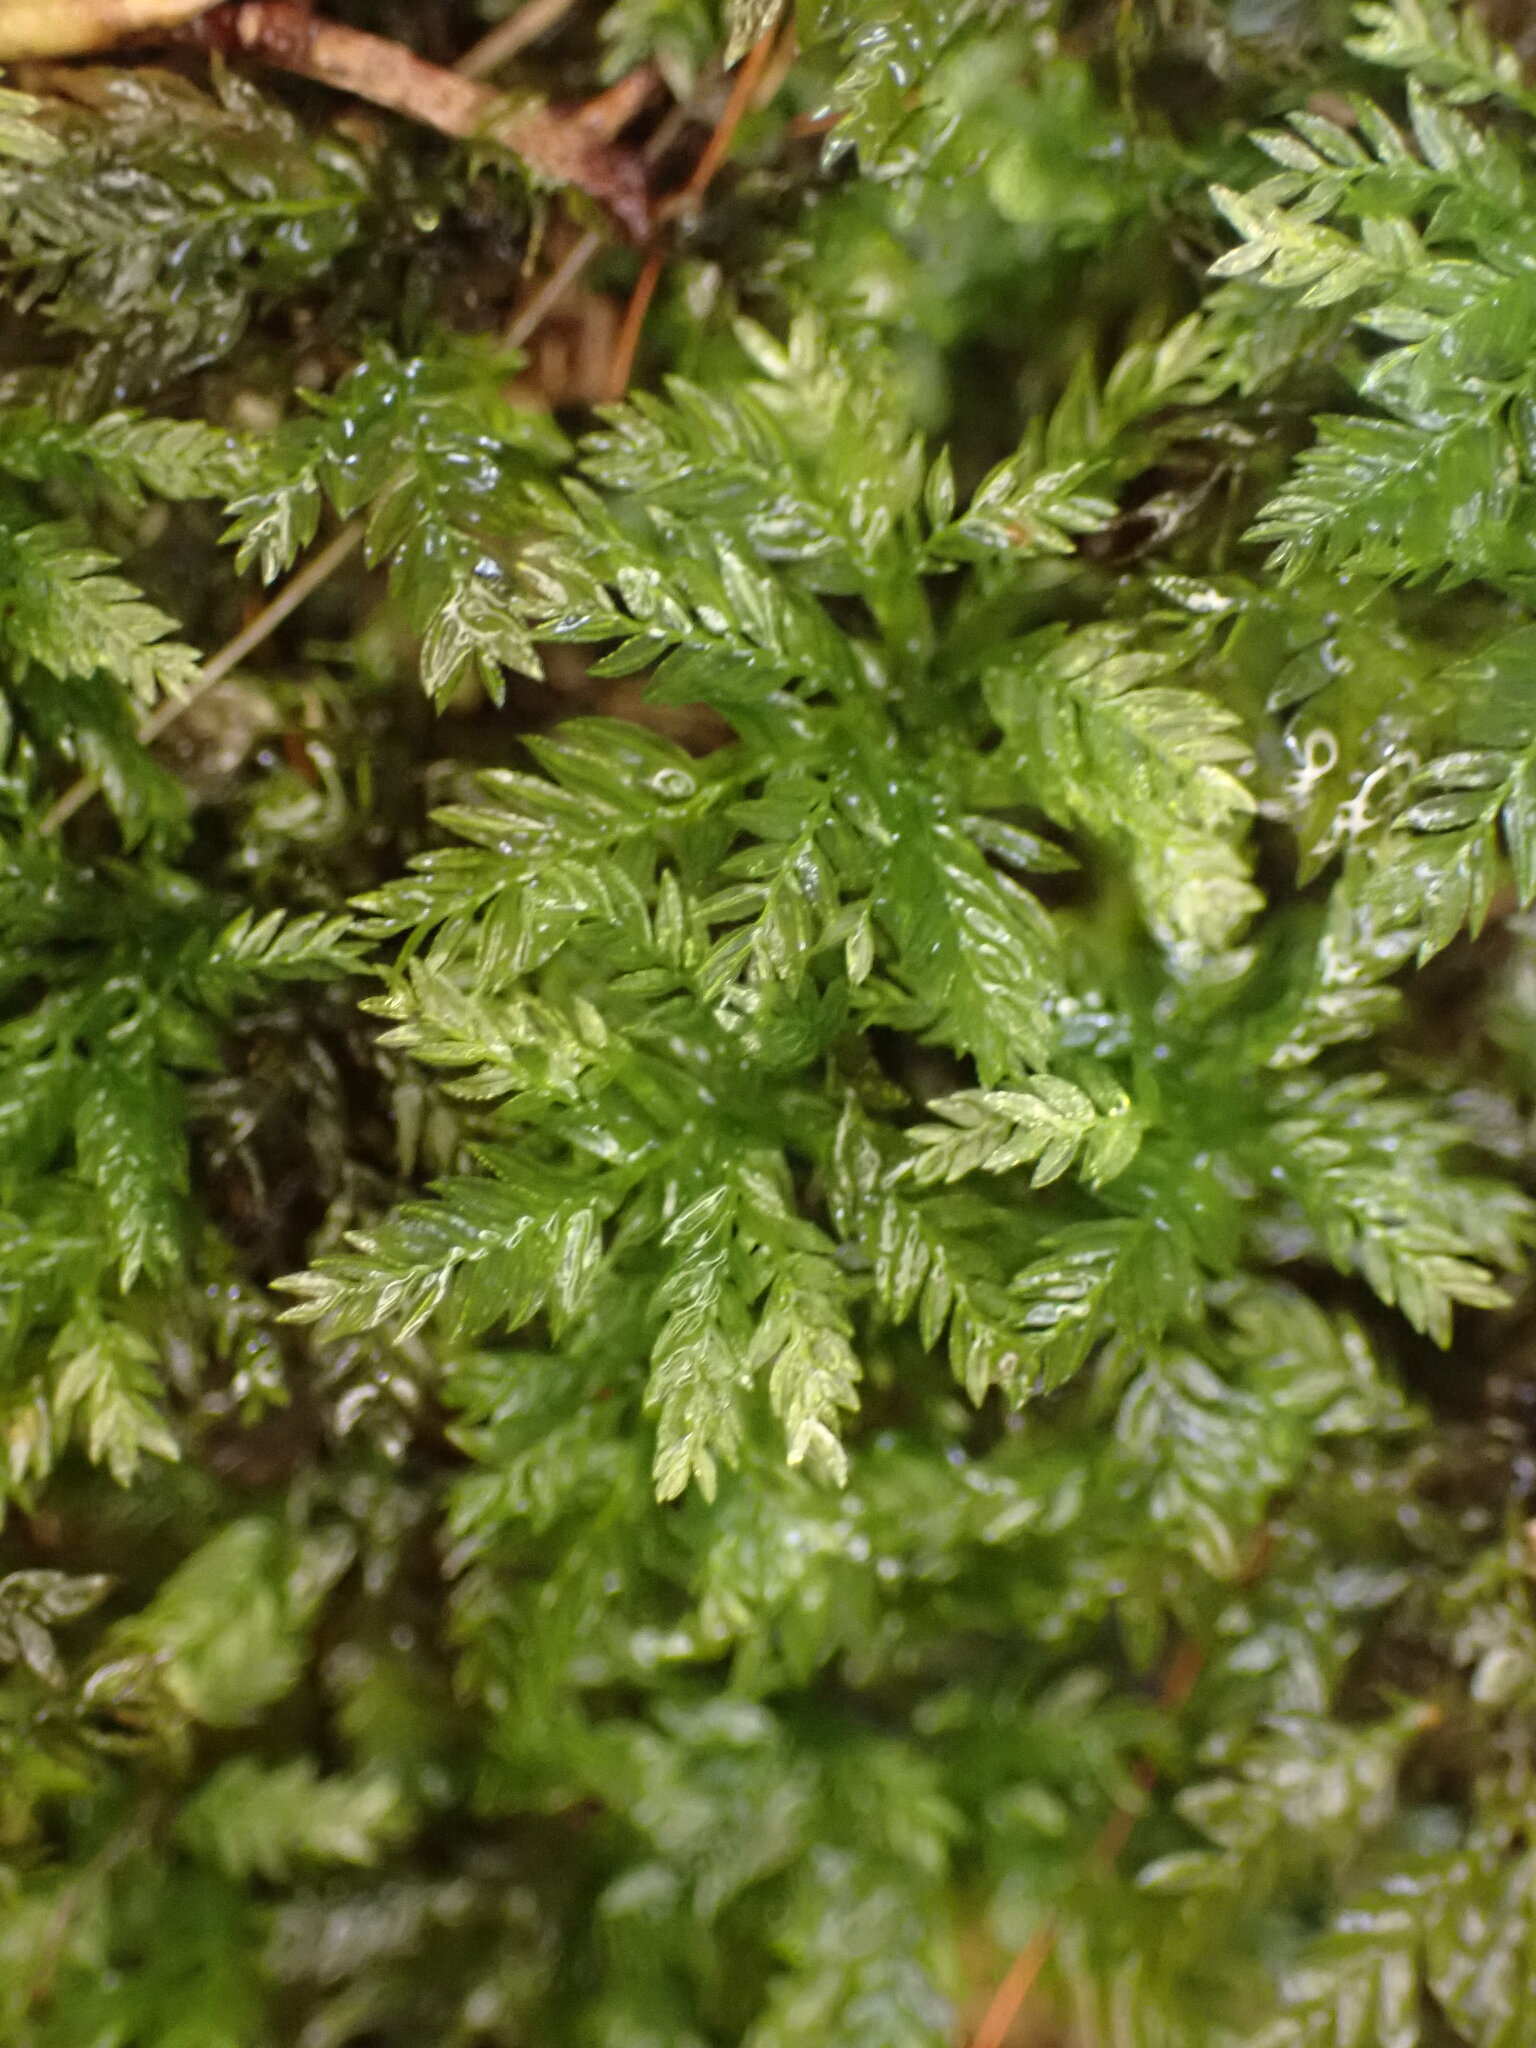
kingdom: Plantae
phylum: Bryophyta
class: Bryopsida
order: Aulacomniales
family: Aulacomniaceae
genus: Hymenodontopsis
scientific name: Hymenodontopsis bifaria
